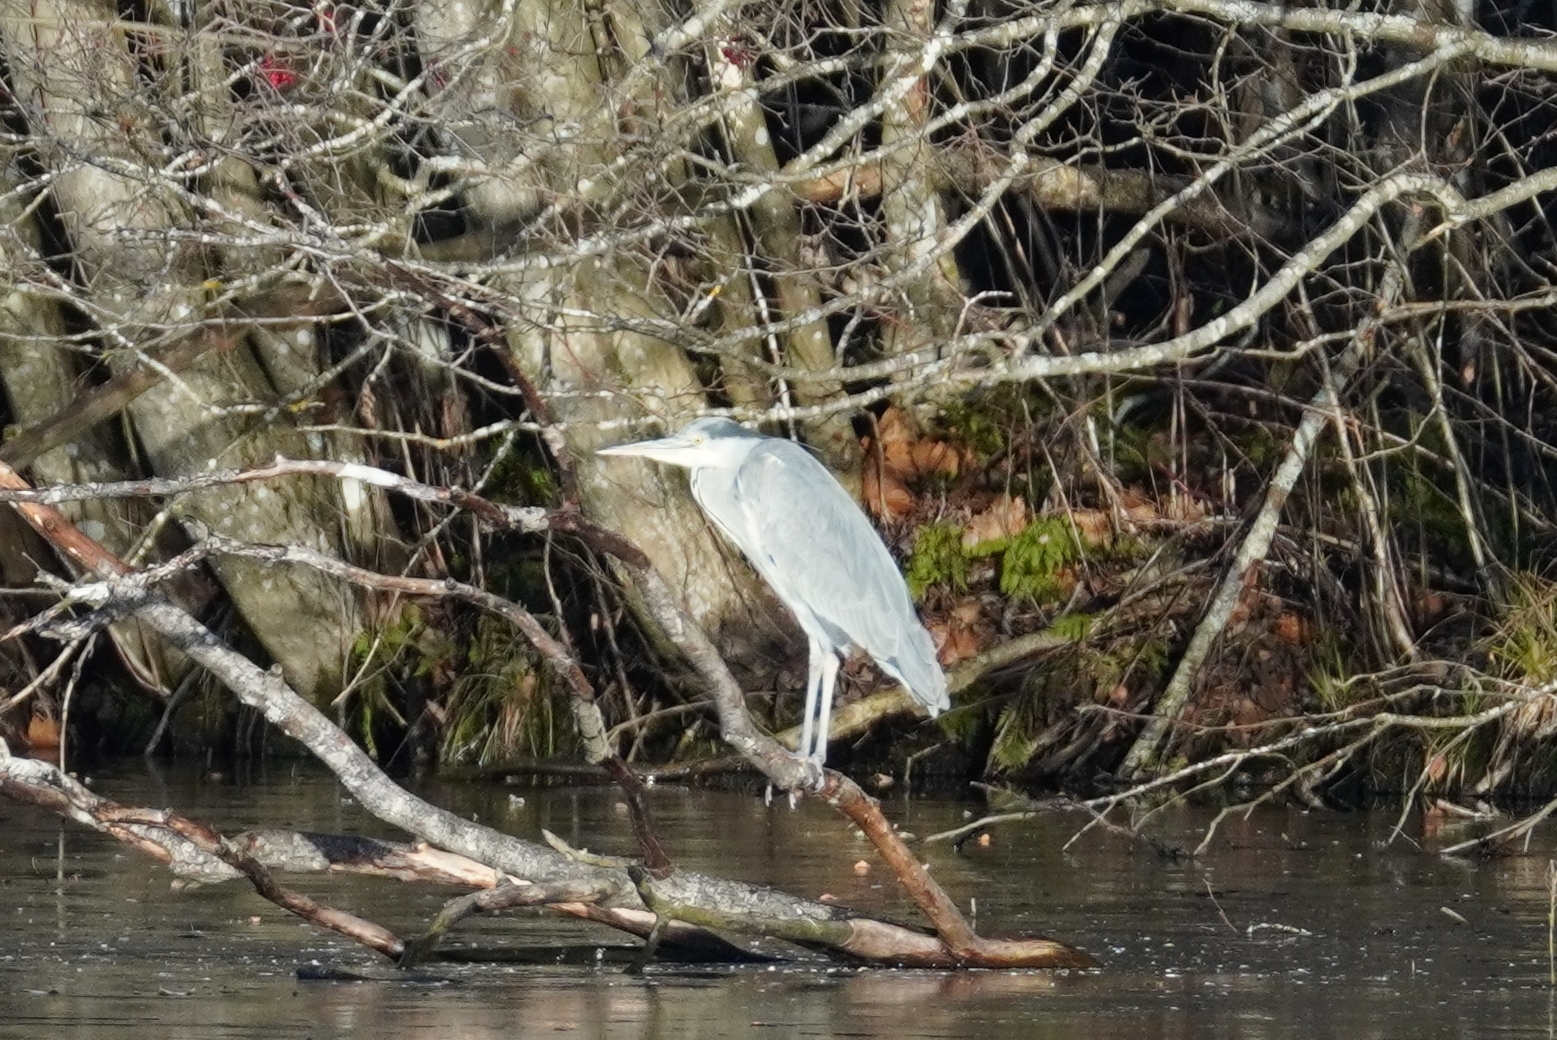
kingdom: Animalia
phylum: Chordata
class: Aves
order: Pelecaniformes
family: Ardeidae
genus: Ardea
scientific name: Ardea cinerea
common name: Grey heron
